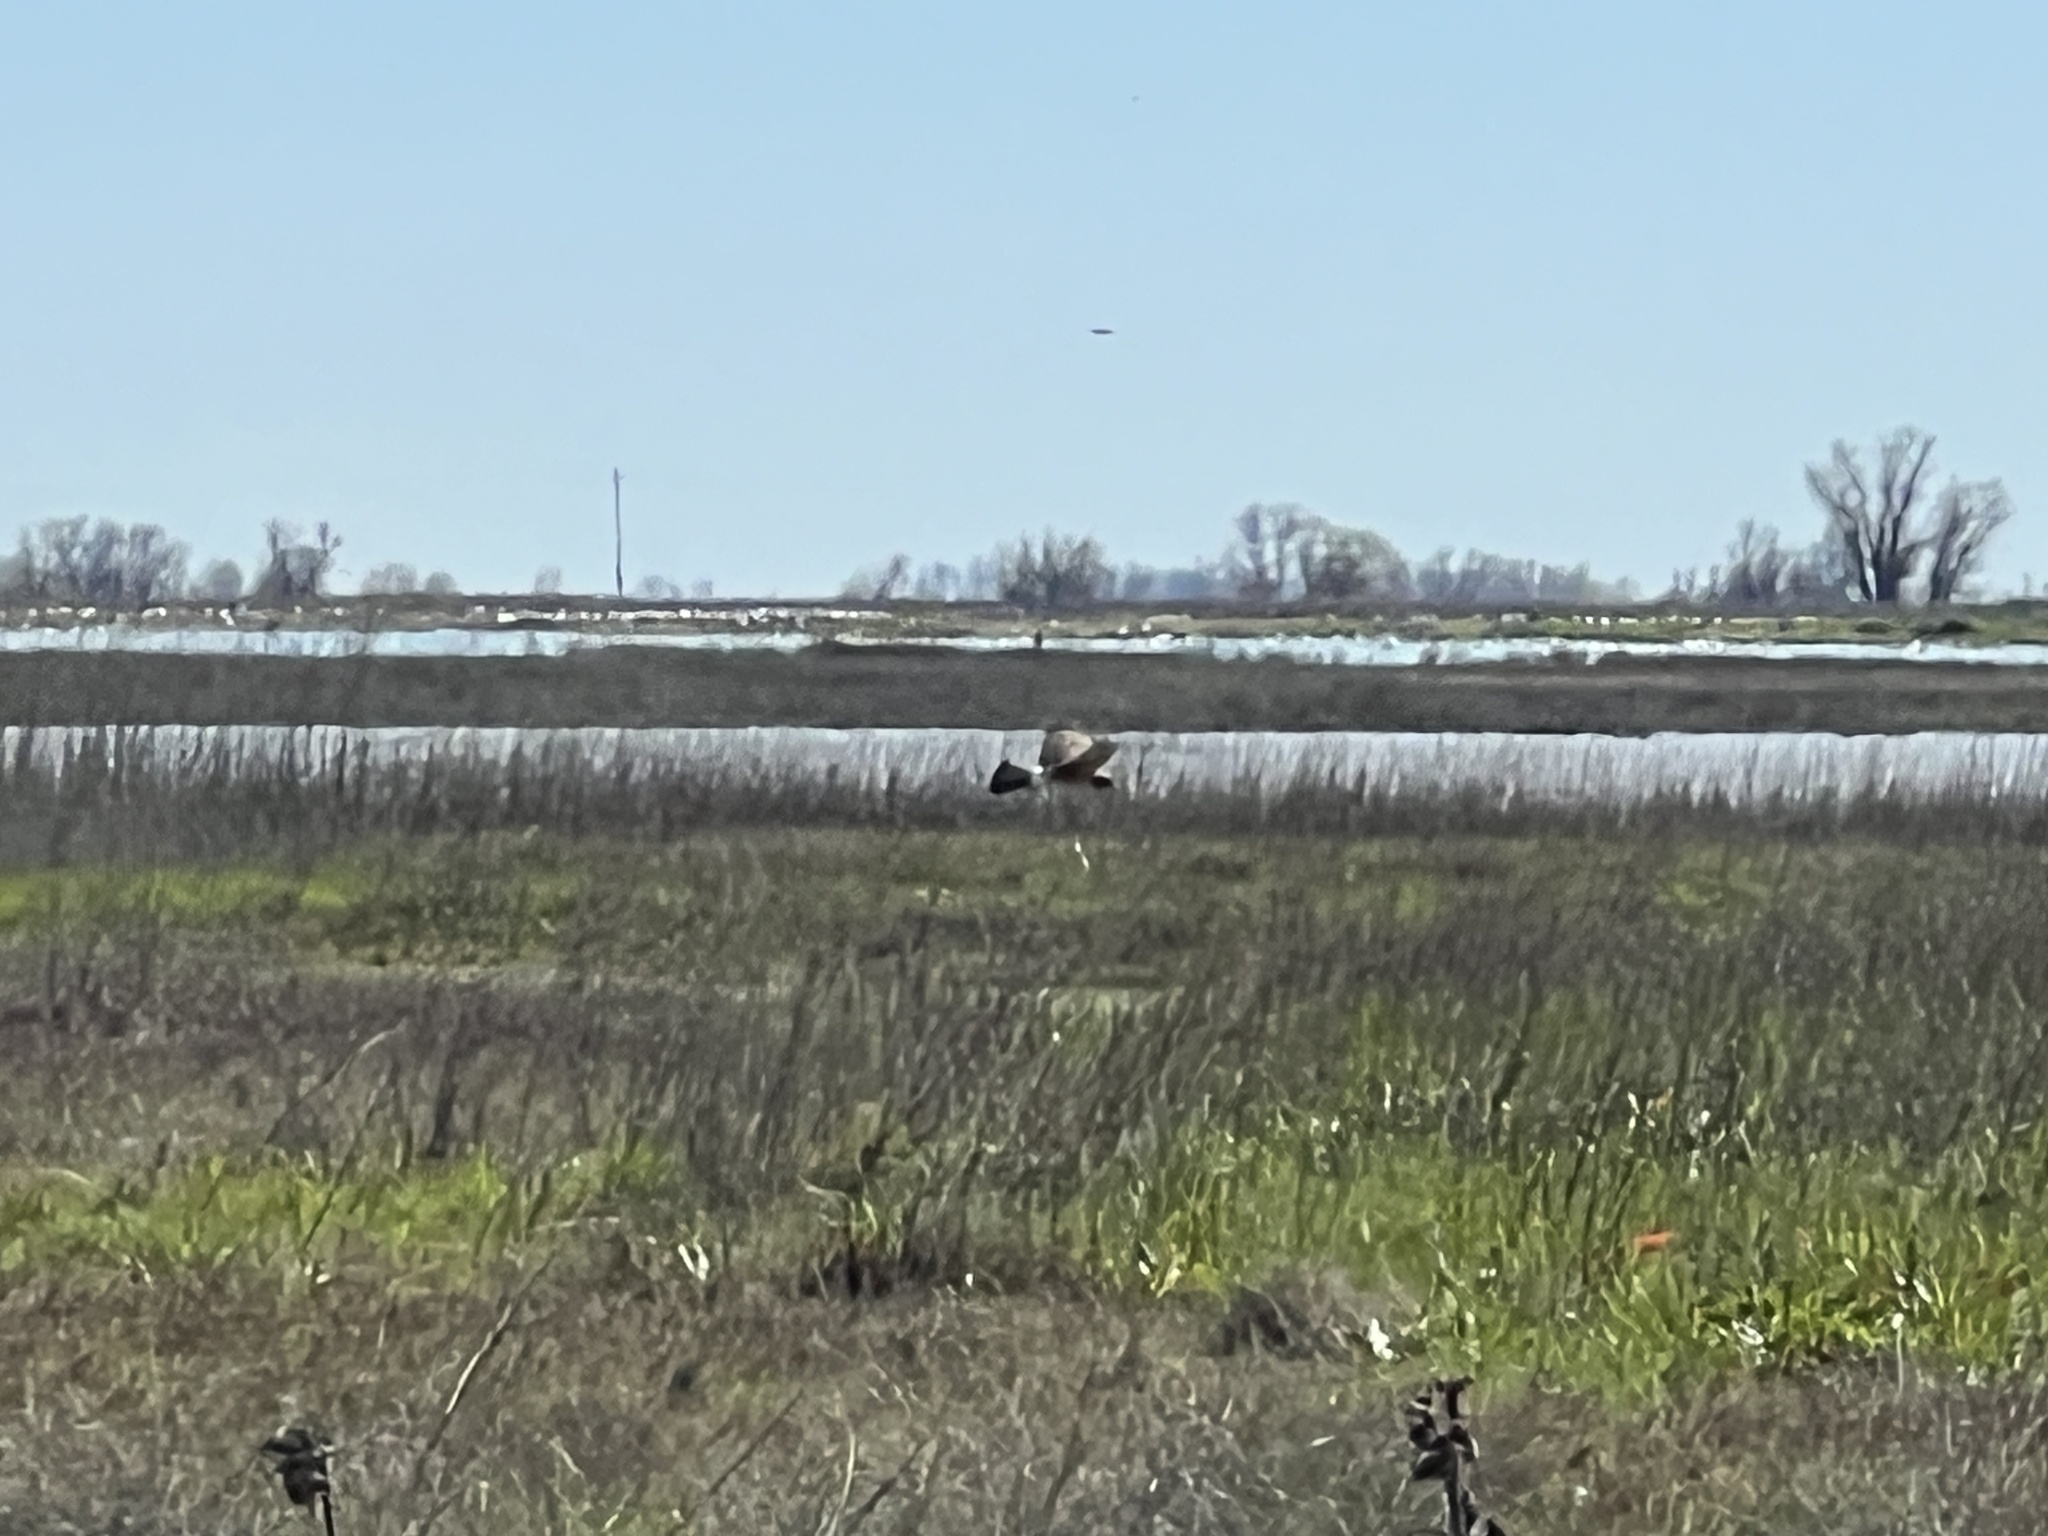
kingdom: Animalia
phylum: Chordata
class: Aves
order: Accipitriformes
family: Accipitridae
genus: Circus
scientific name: Circus cyaneus
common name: Hen harrier
